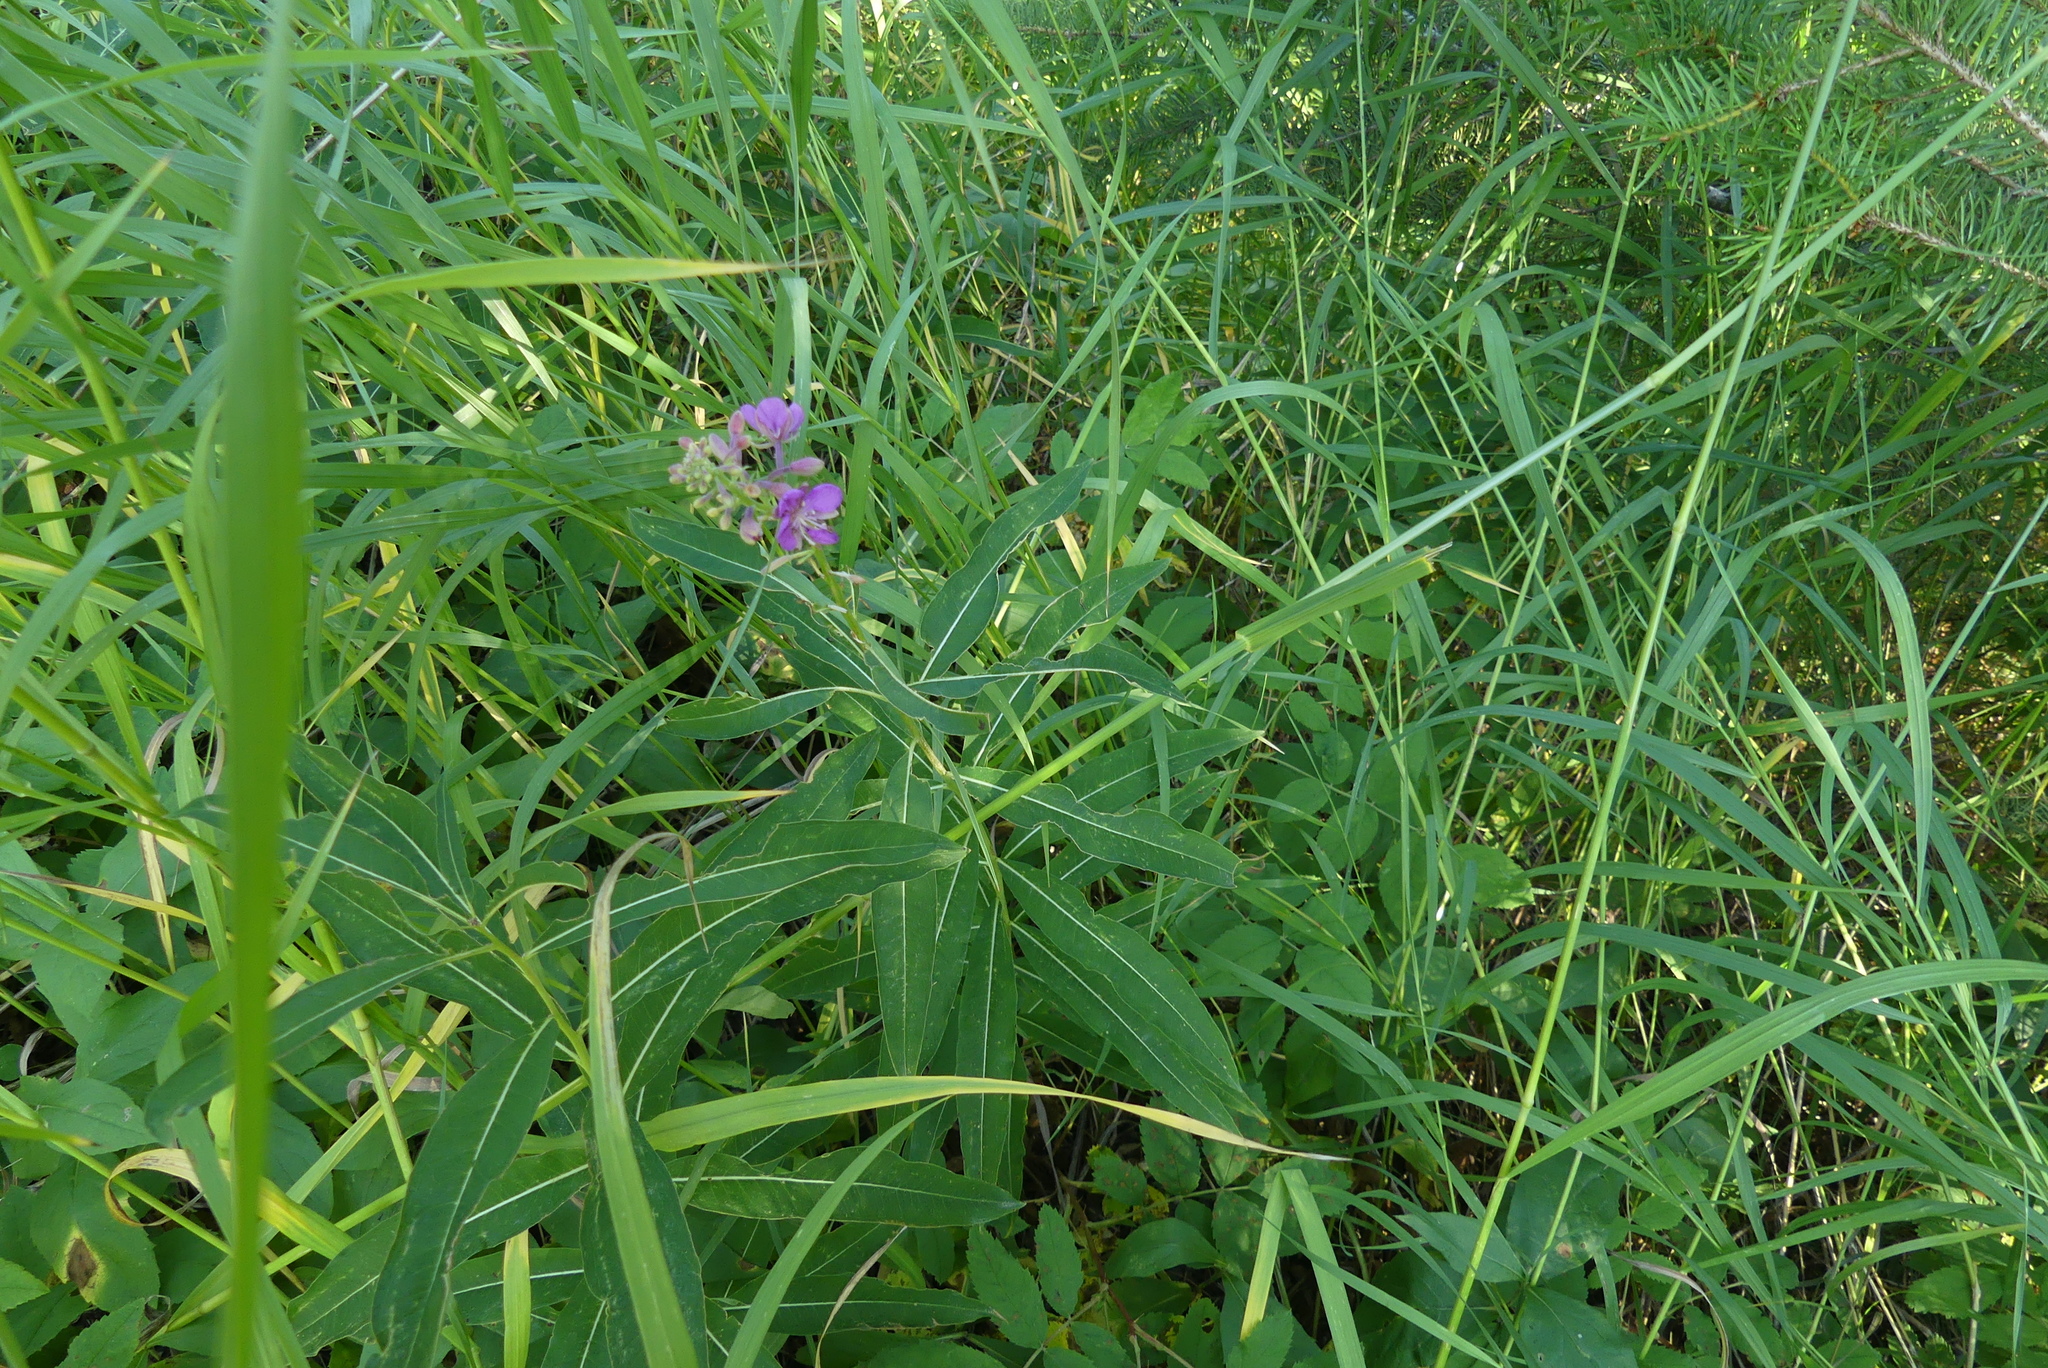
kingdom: Plantae
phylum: Tracheophyta
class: Magnoliopsida
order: Myrtales
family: Onagraceae
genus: Chamaenerion
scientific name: Chamaenerion angustifolium
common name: Fireweed
